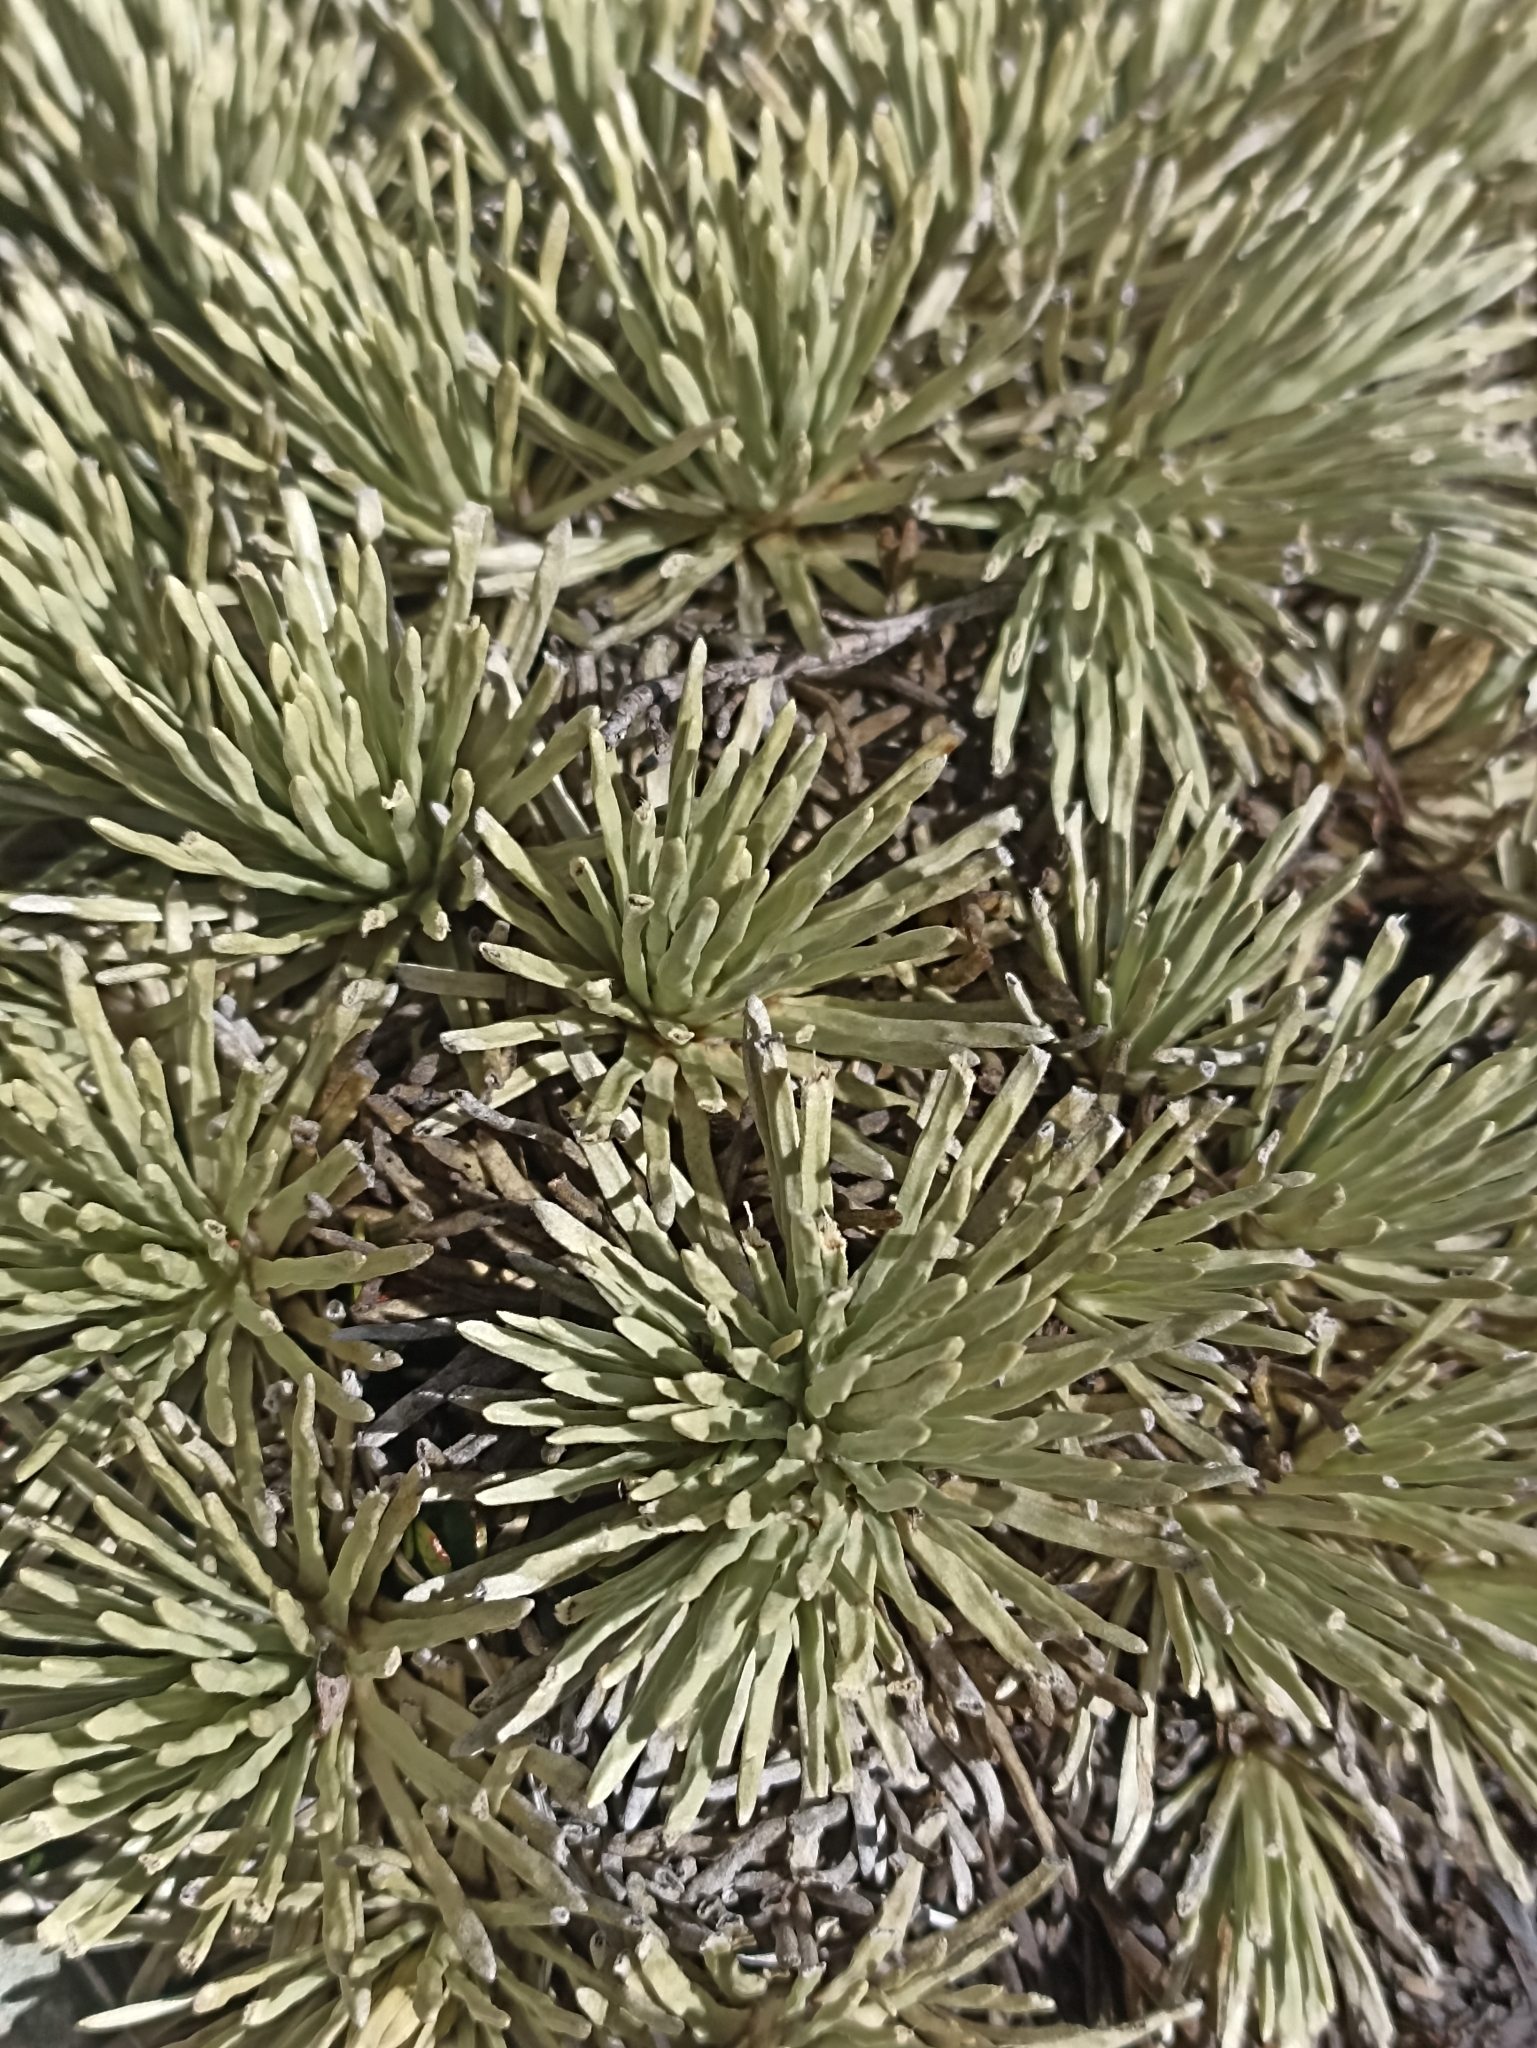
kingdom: Plantae
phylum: Tracheophyta
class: Magnoliopsida
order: Asterales
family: Asteraceae
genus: Celmisia
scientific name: Celmisia sessiliflora
